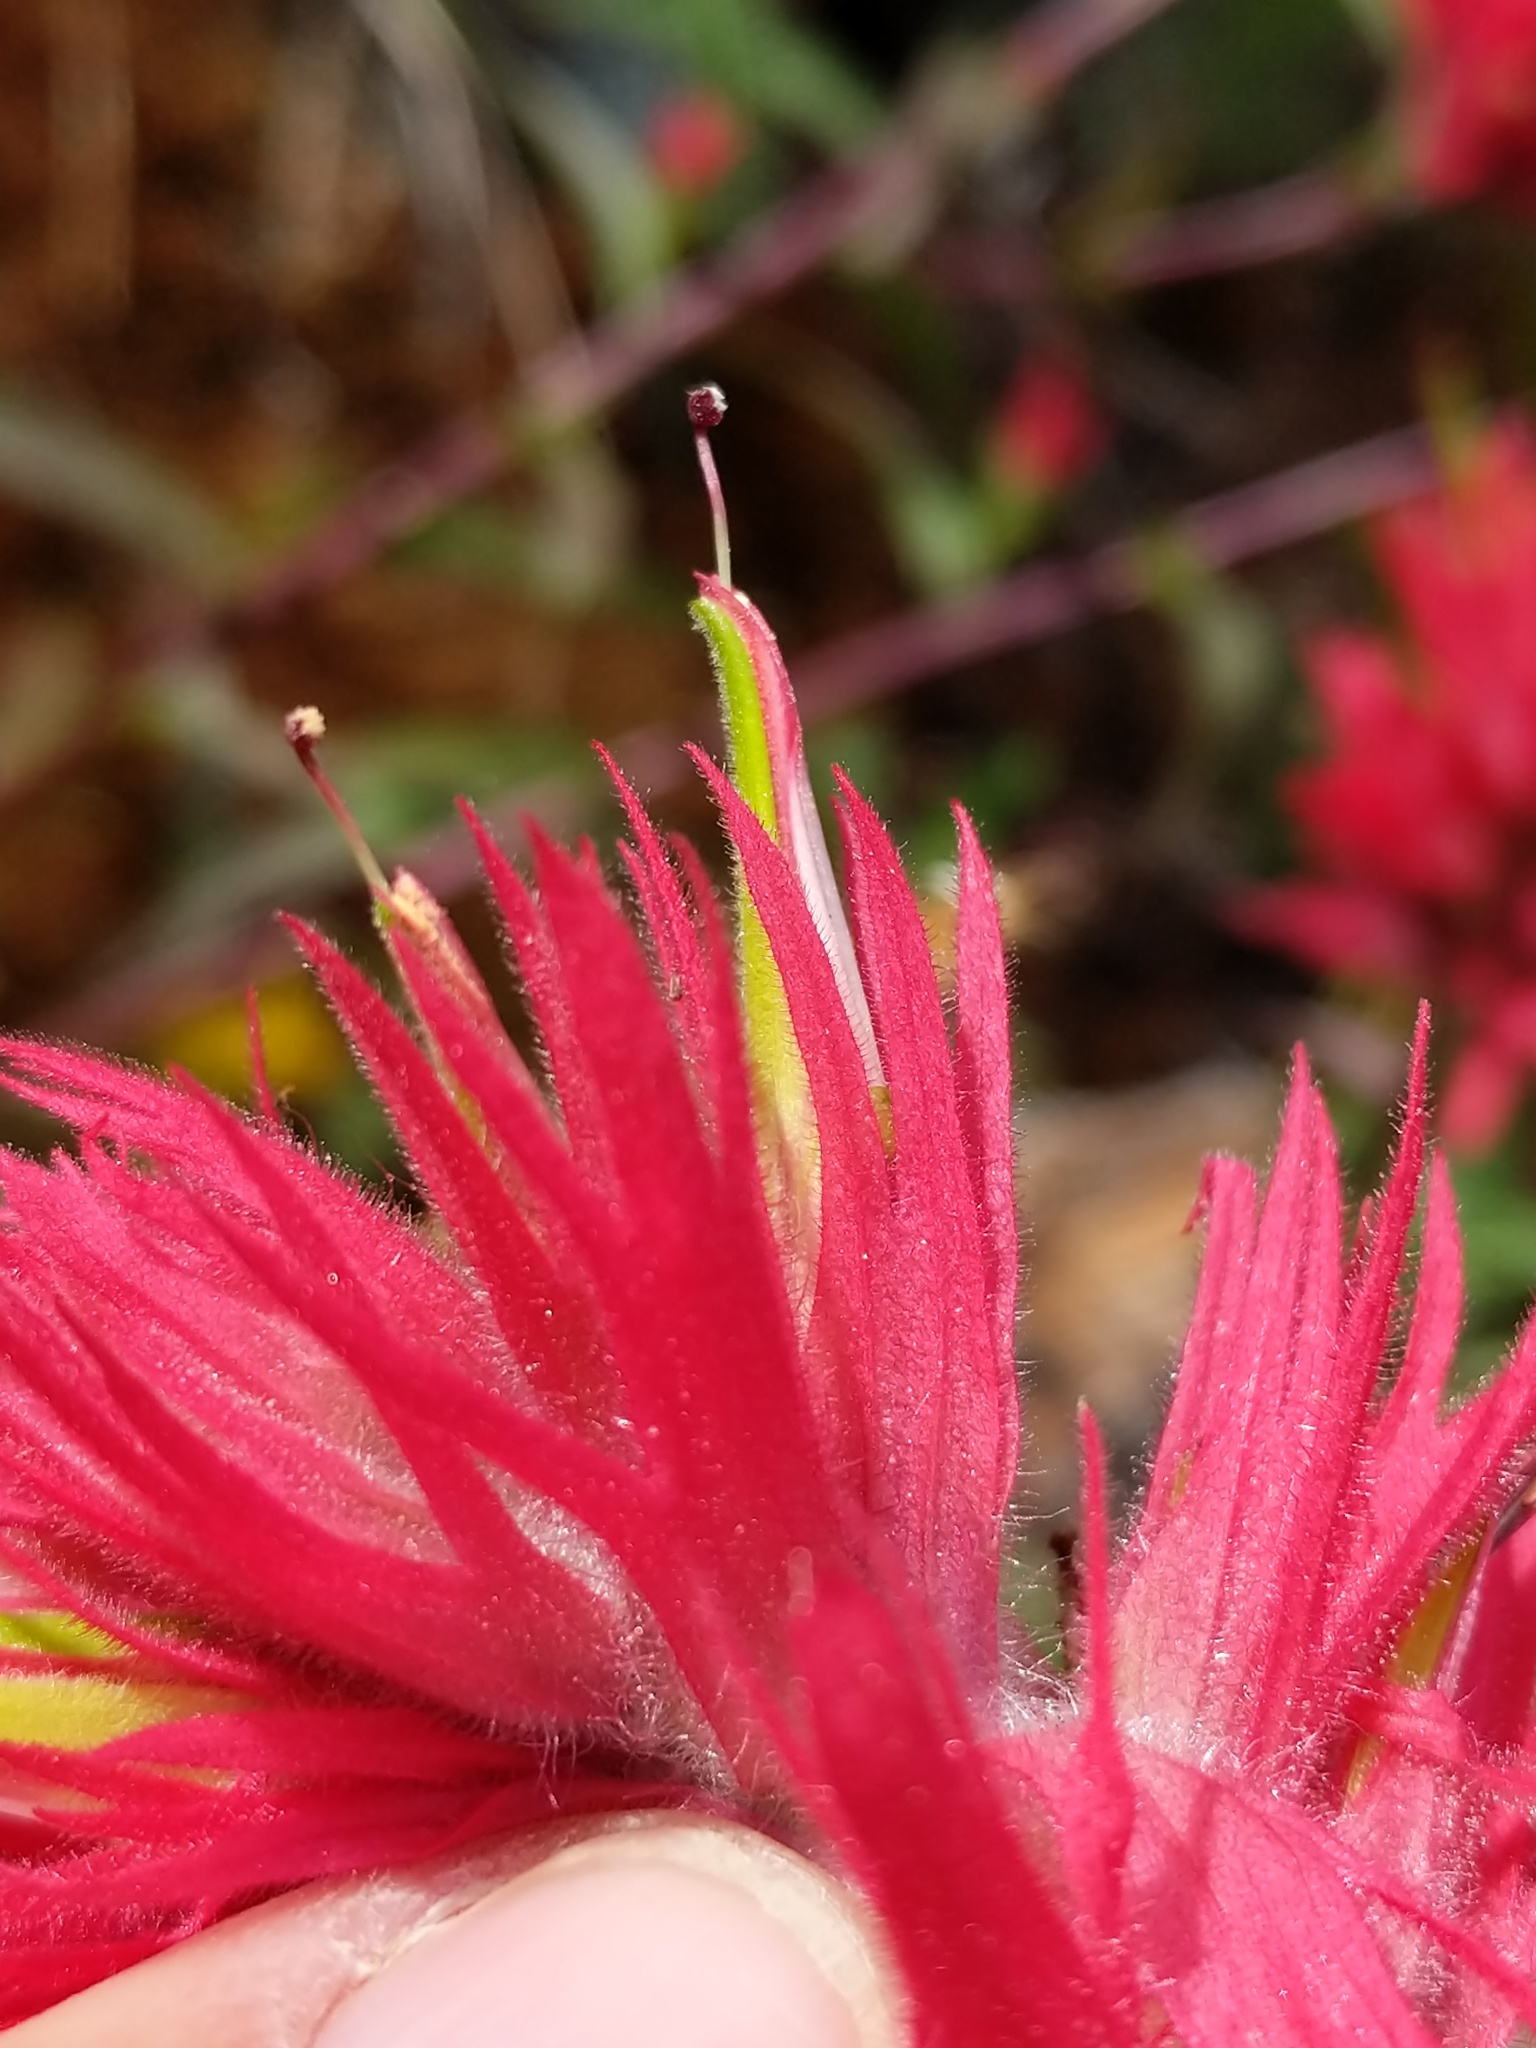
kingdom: Plantae
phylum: Tracheophyta
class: Magnoliopsida
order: Lamiales
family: Orobanchaceae
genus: Castilleja
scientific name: Castilleja miniata
